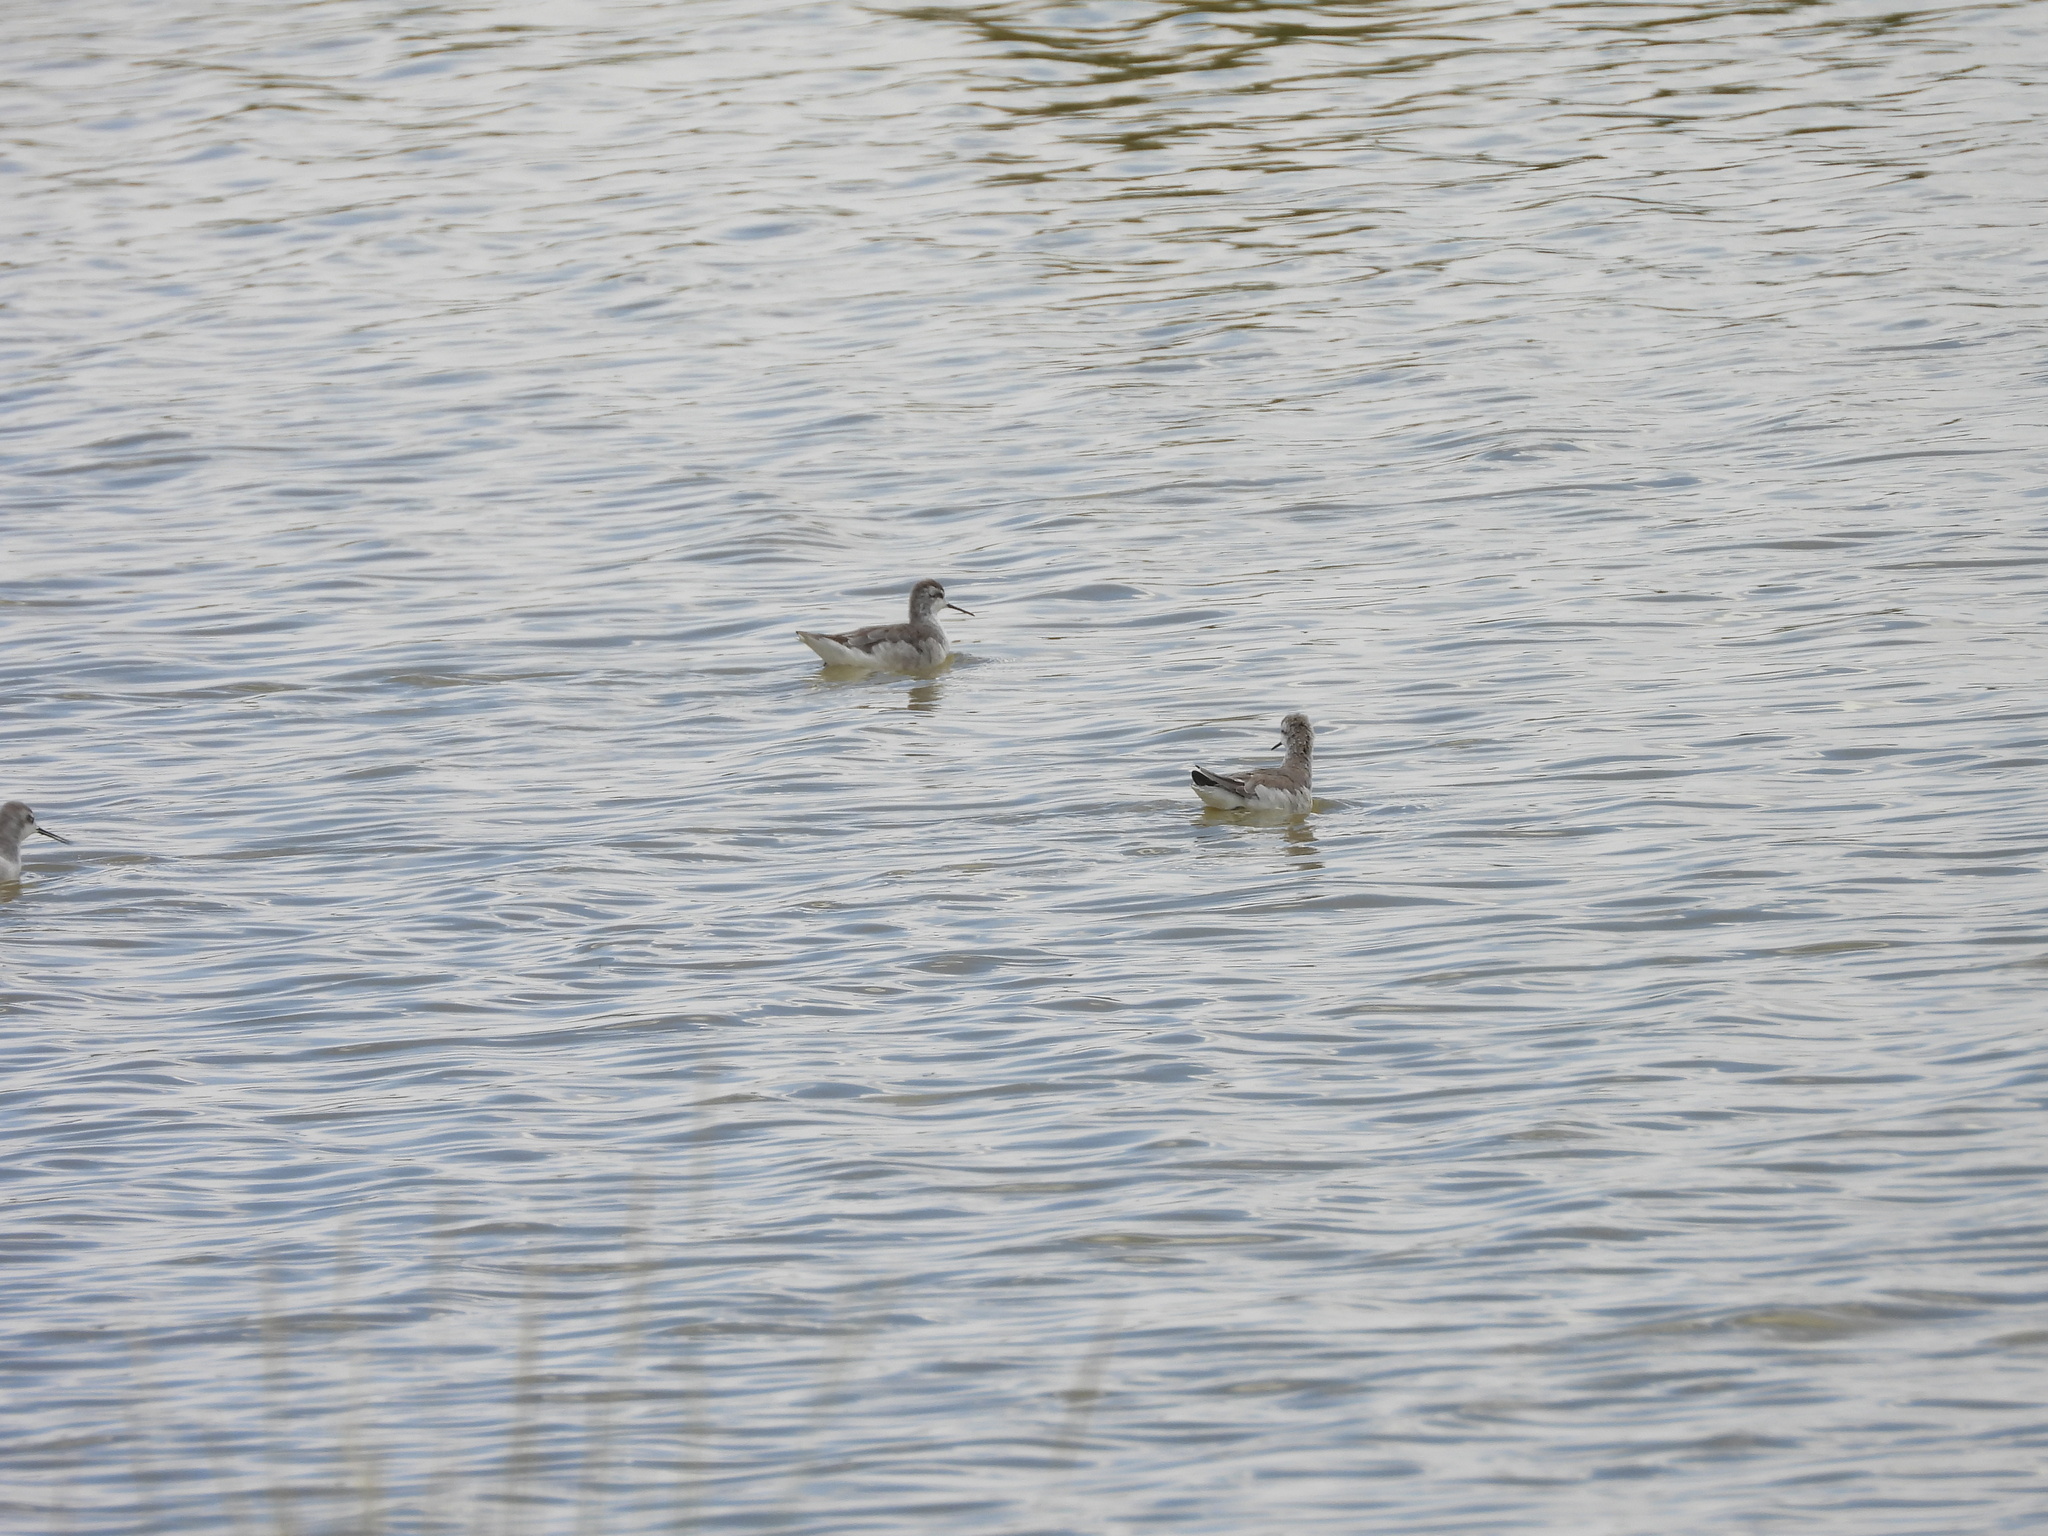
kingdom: Animalia
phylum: Chordata
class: Aves
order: Charadriiformes
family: Scolopacidae
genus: Phalaropus
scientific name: Phalaropus tricolor
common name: Wilson's phalarope
